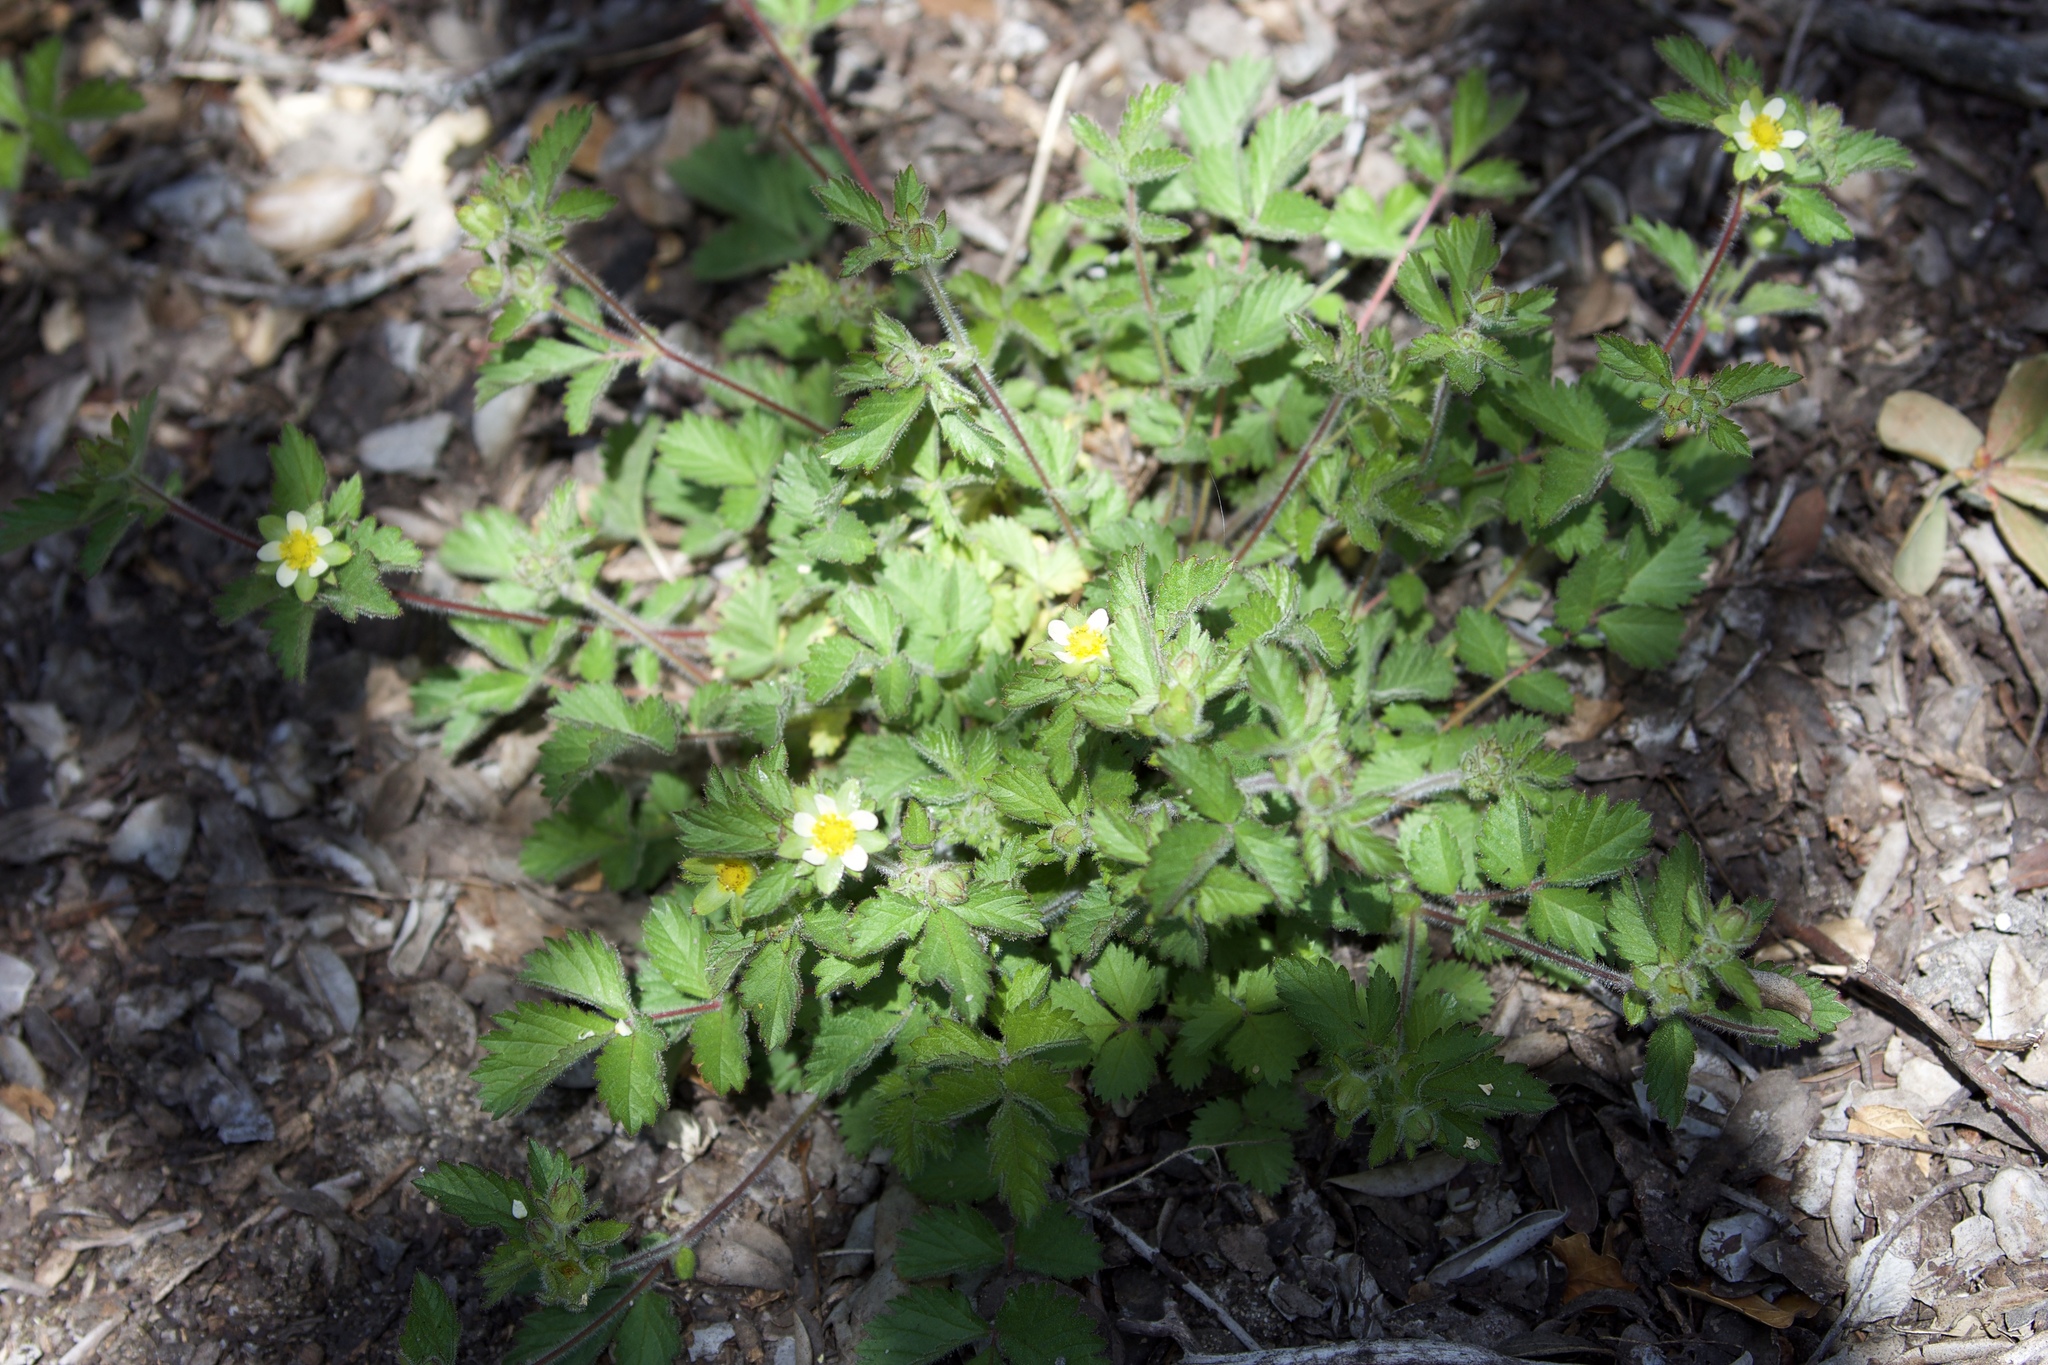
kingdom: Plantae
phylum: Tracheophyta
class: Magnoliopsida
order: Rosales
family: Rosaceae
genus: Drymocallis
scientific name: Drymocallis glandulosa
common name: Sticky cinquefoil
